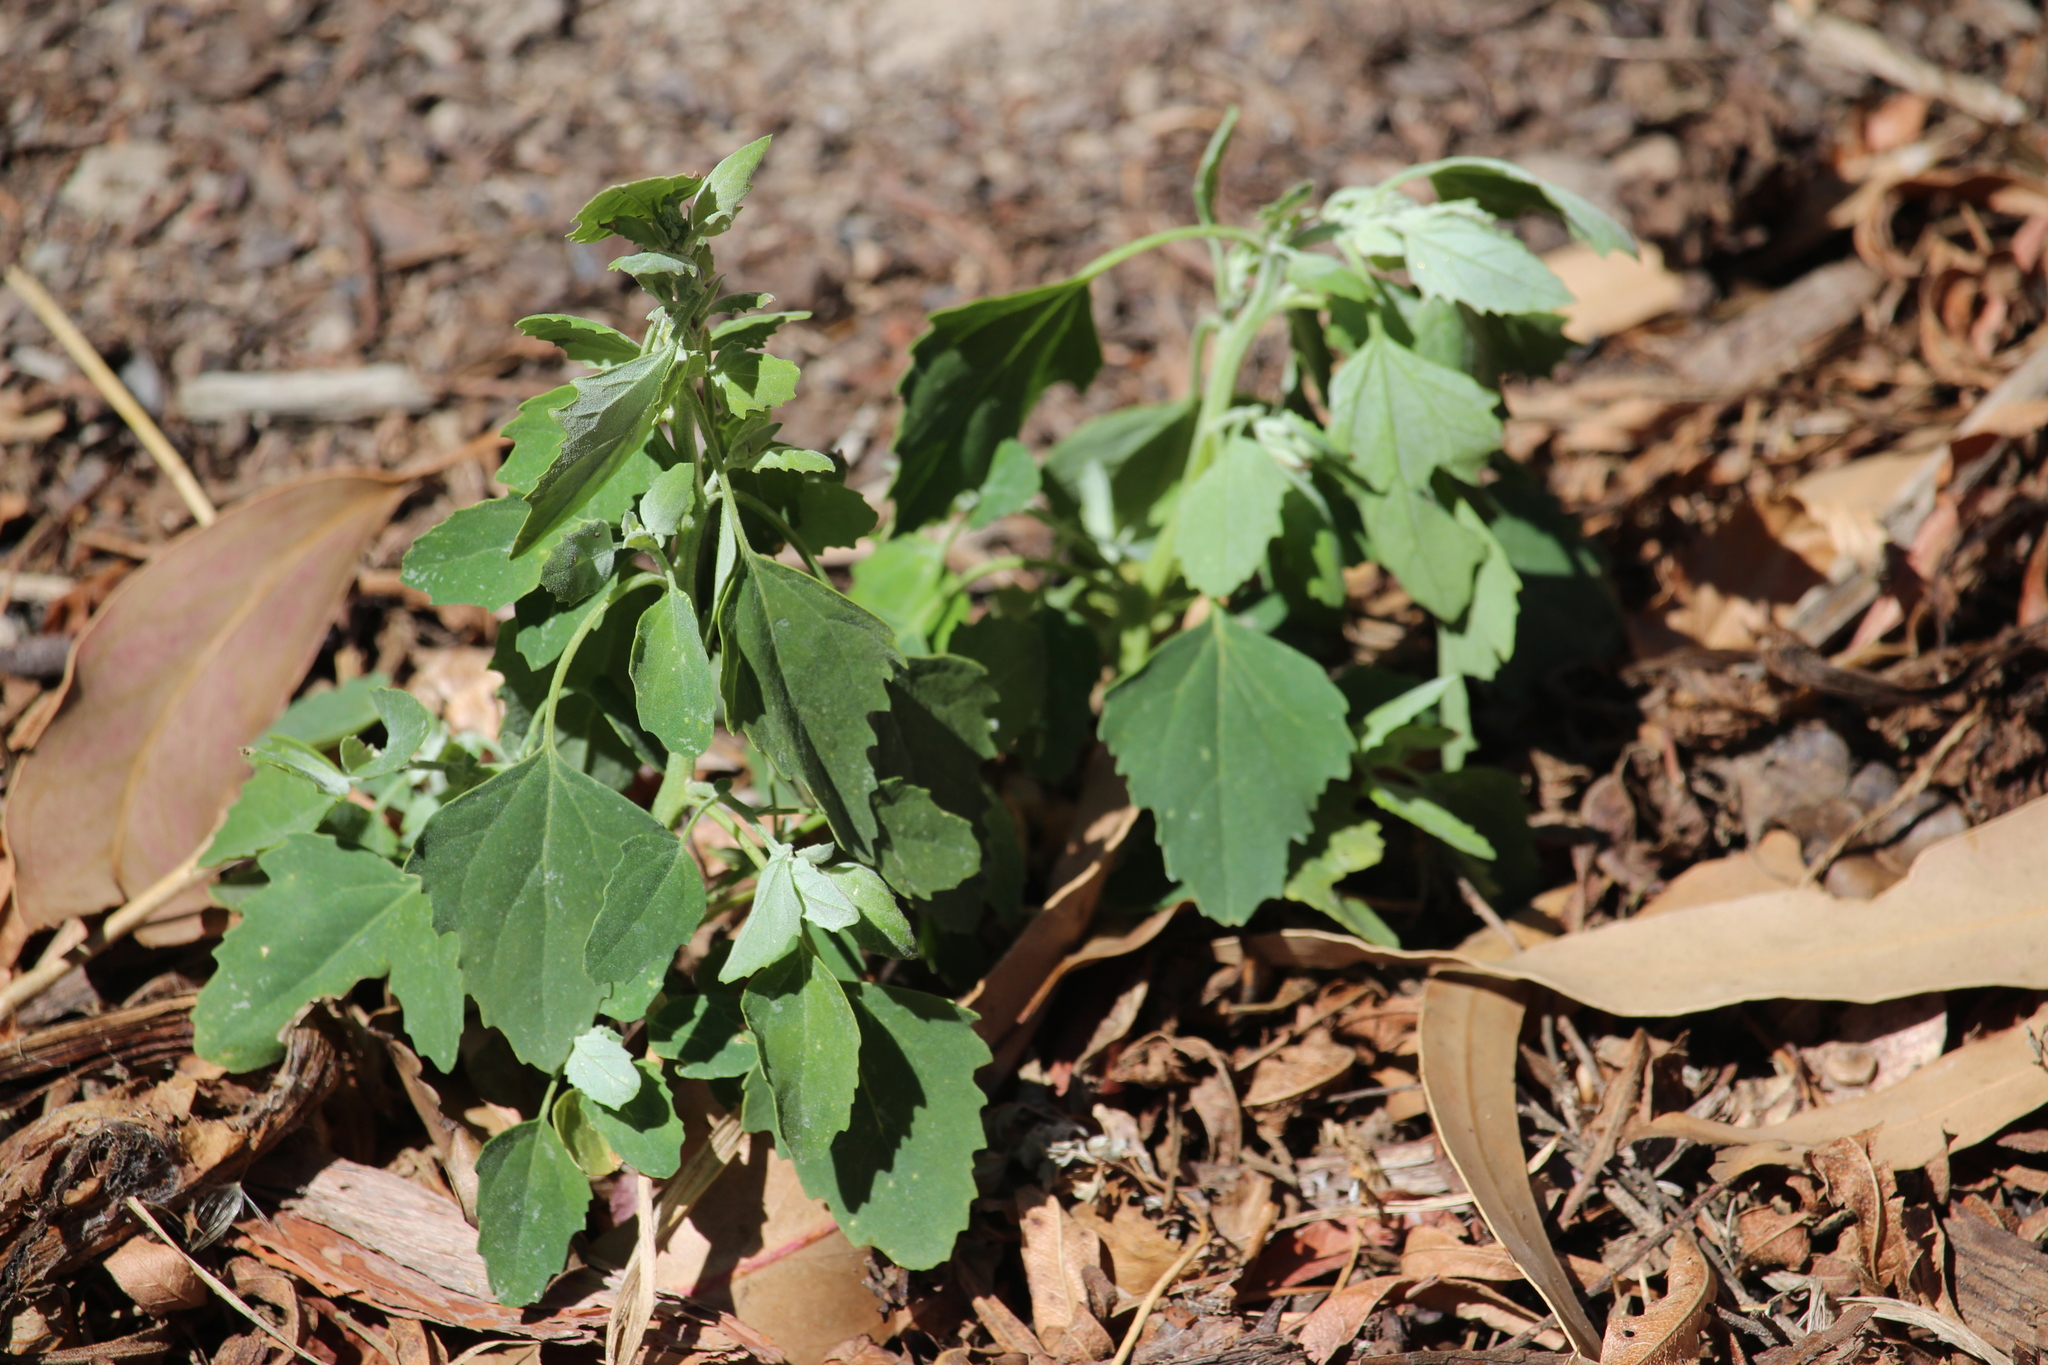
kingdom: Plantae
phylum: Tracheophyta
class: Magnoliopsida
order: Caryophyllales
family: Amaranthaceae
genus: Chenopodium
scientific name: Chenopodium album
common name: Fat-hen
